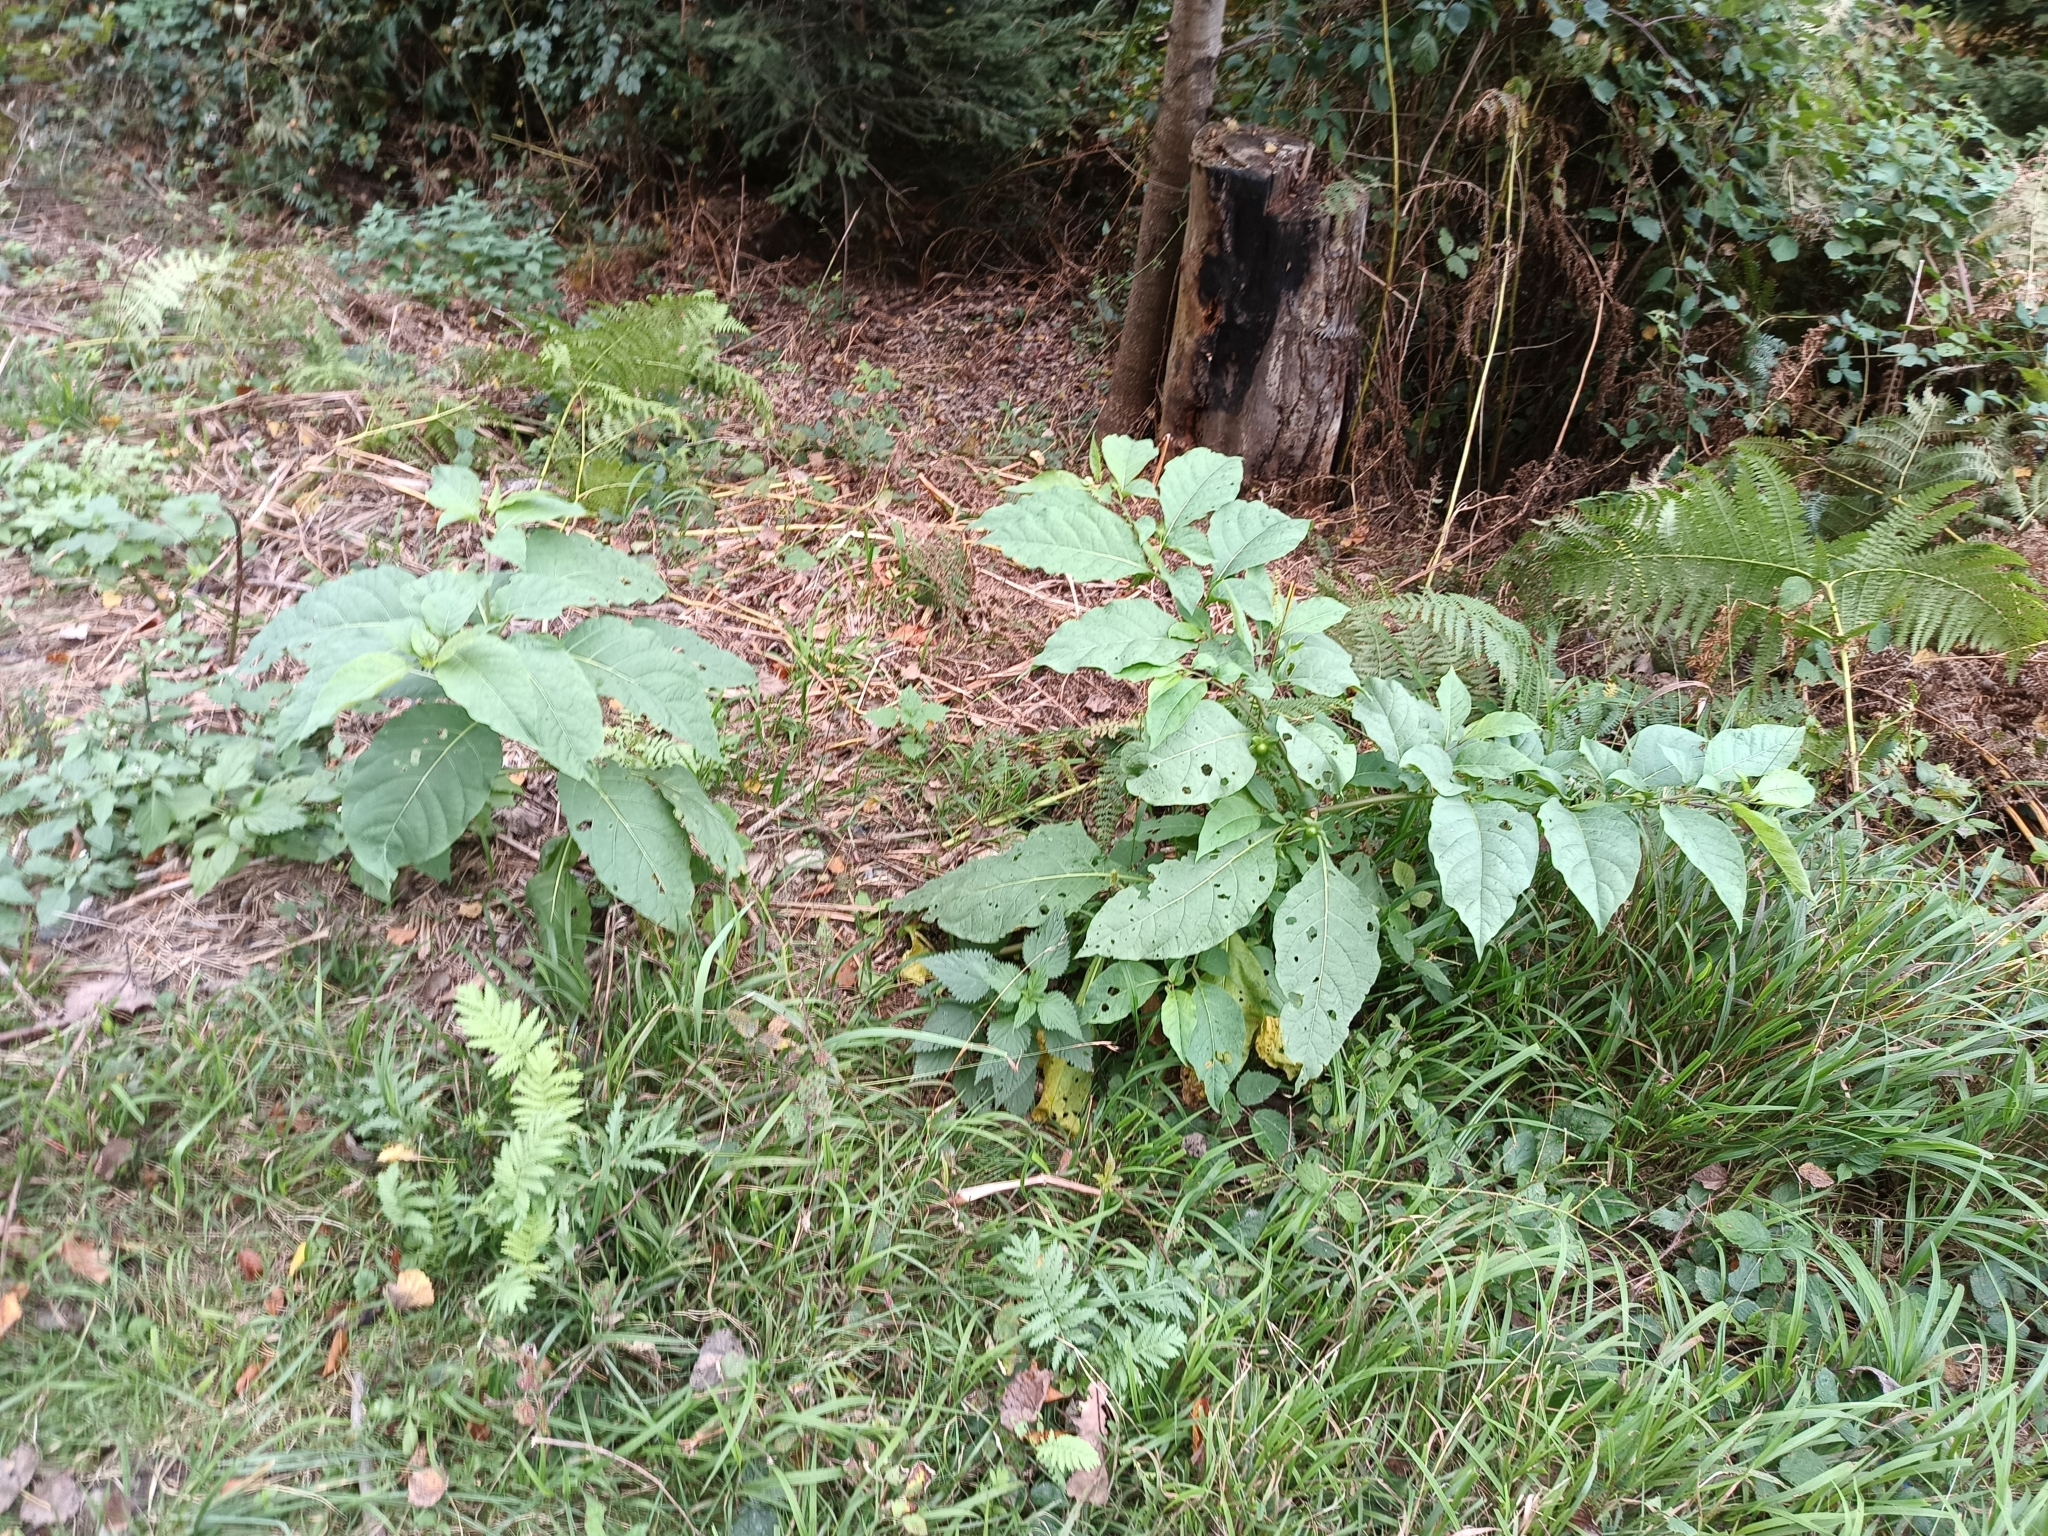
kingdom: Plantae
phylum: Tracheophyta
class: Magnoliopsida
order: Solanales
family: Solanaceae
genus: Atropa
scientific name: Atropa belladonna
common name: Deadly nightshade
